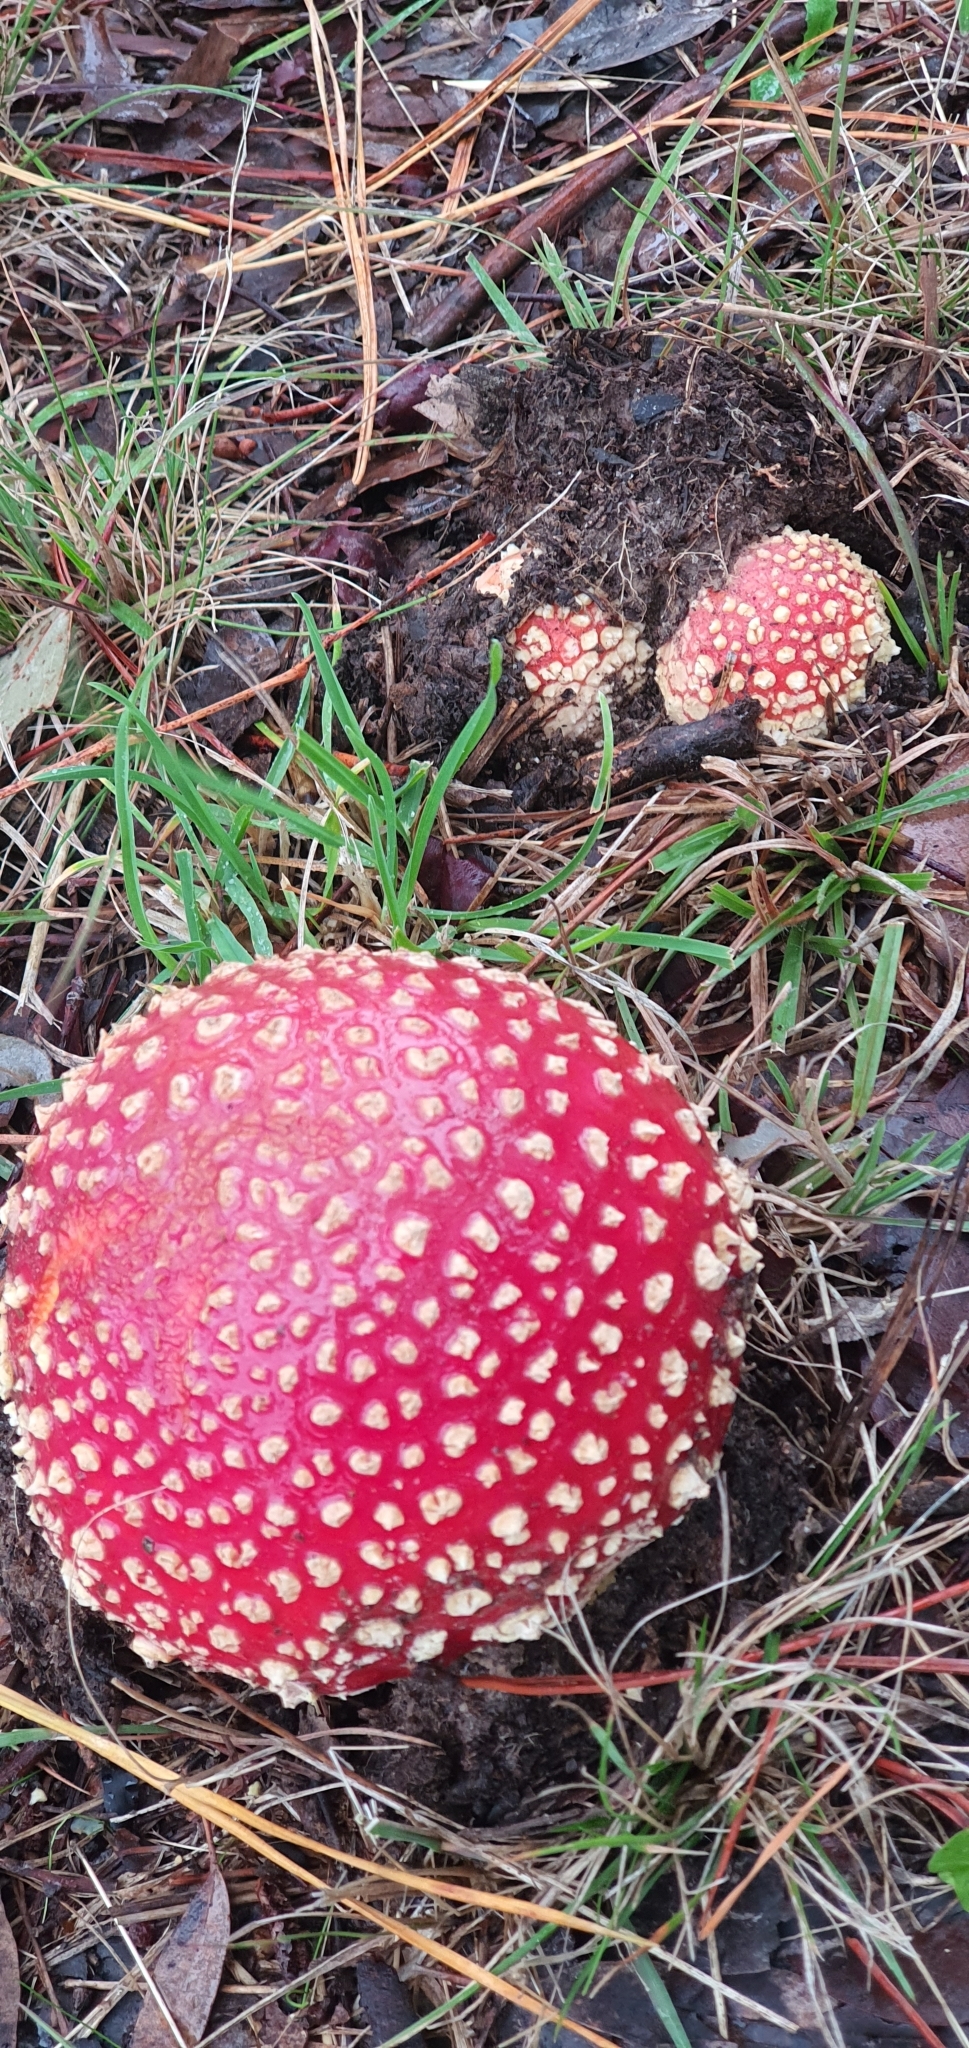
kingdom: Fungi
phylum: Basidiomycota
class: Agaricomycetes
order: Agaricales
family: Amanitaceae
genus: Amanita
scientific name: Amanita muscaria
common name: Fly agaric
